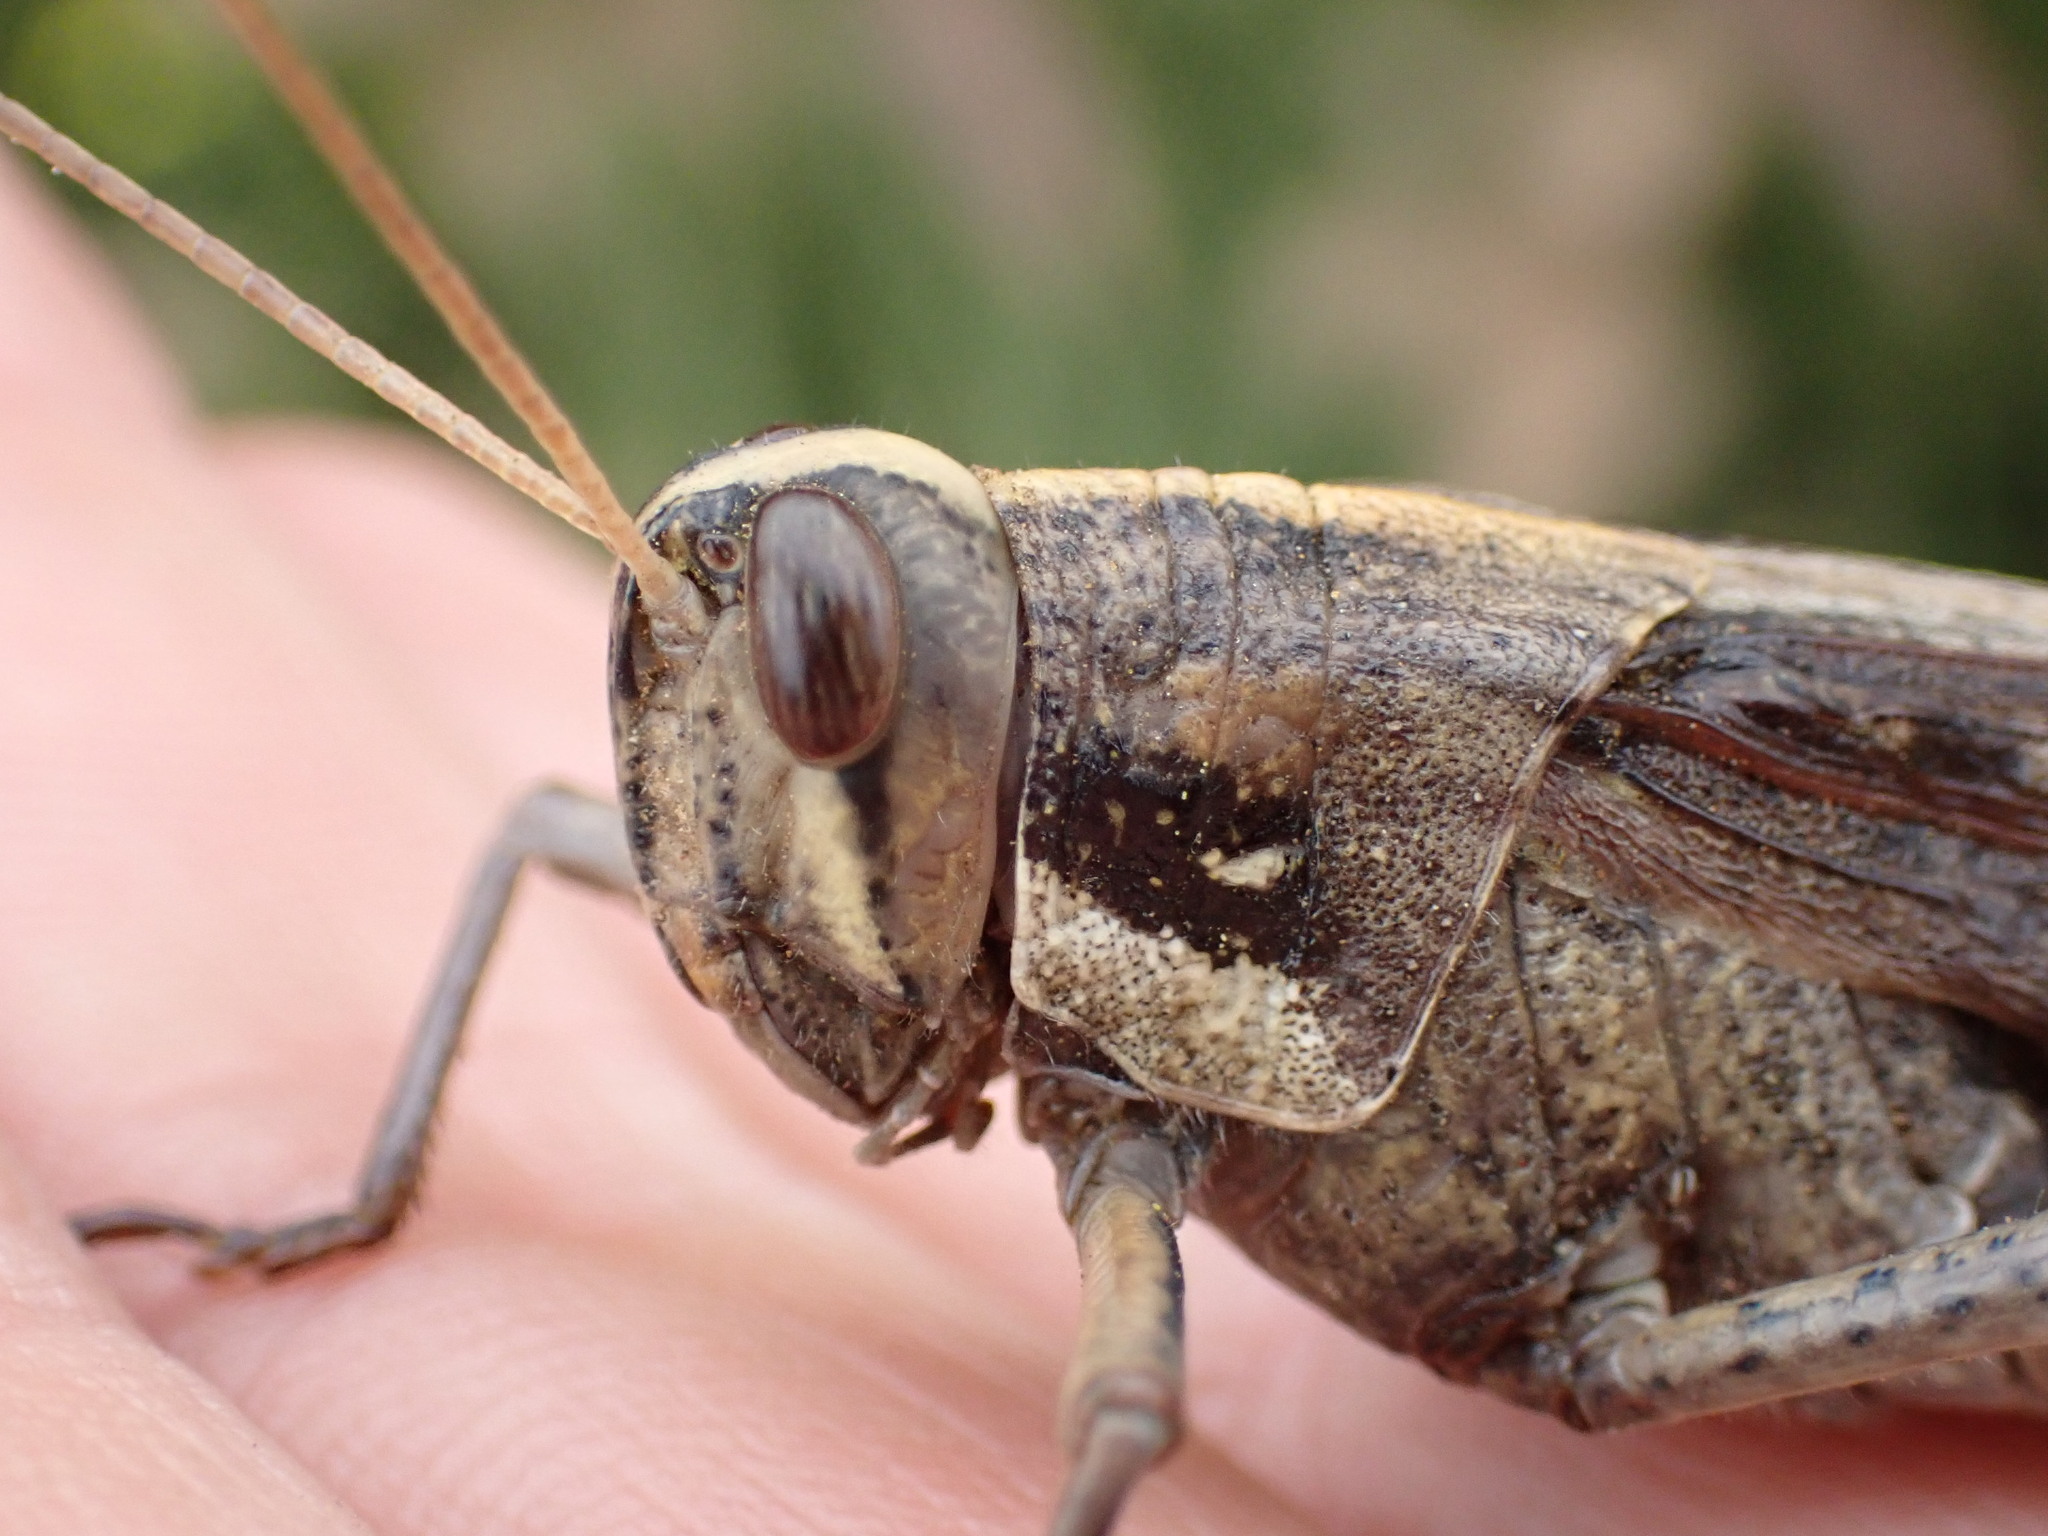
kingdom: Animalia
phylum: Arthropoda
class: Insecta
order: Orthoptera
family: Acrididae
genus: Schistocerca
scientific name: Schistocerca nitens
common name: Vagrant grasshopper
